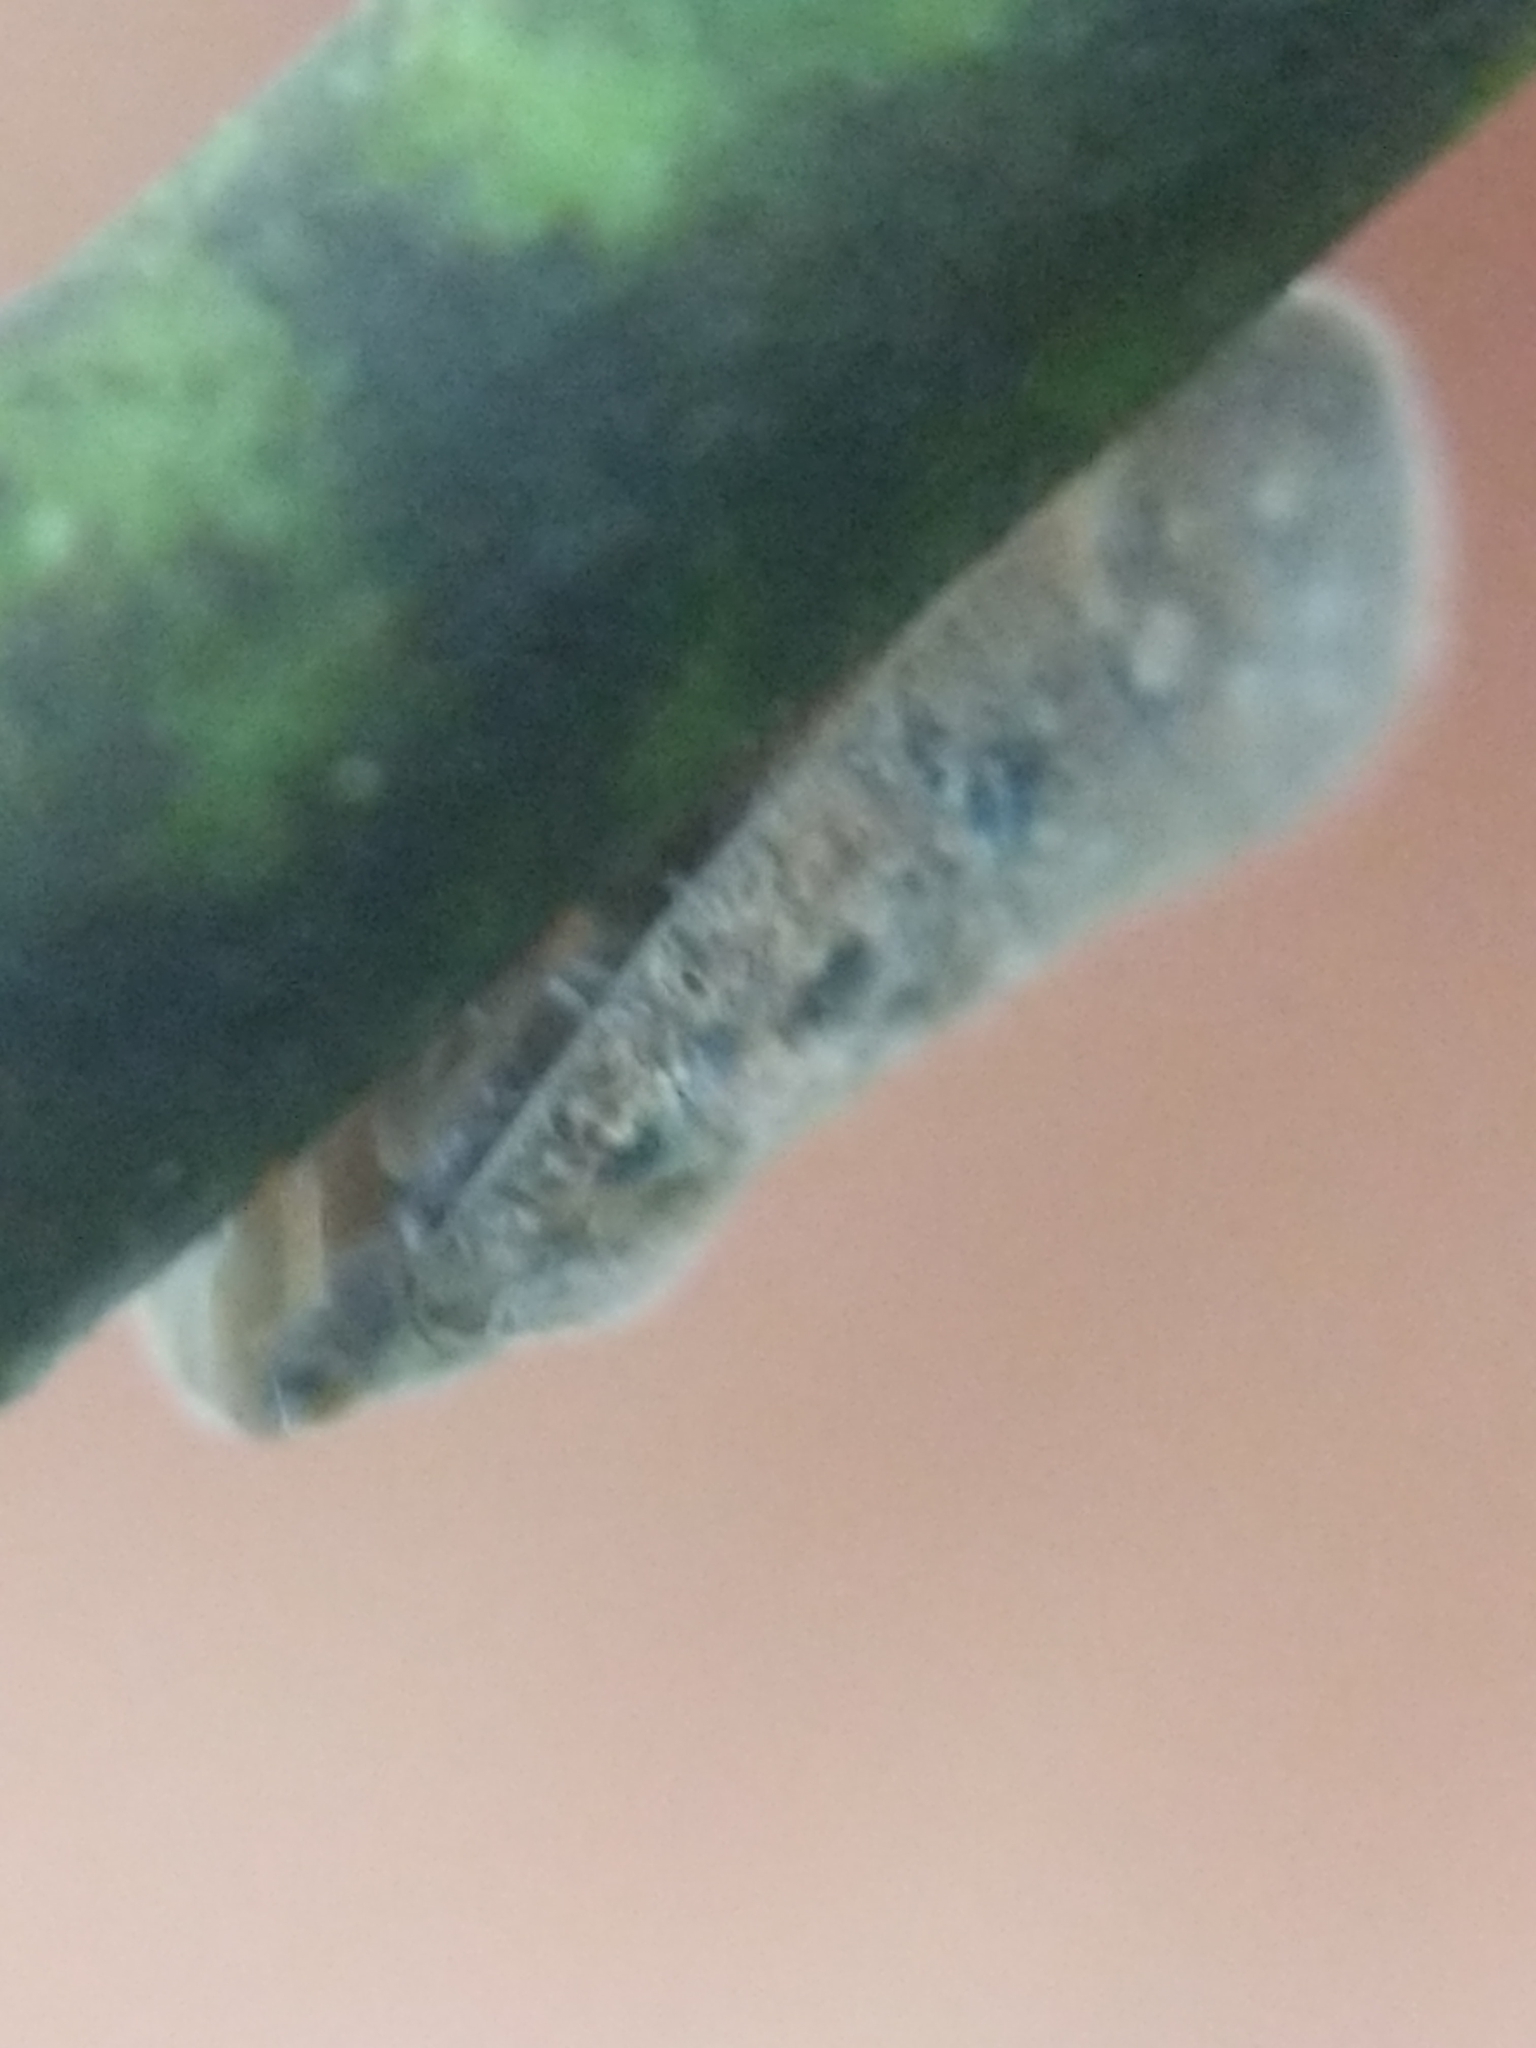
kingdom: Animalia
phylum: Arthropoda
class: Insecta
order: Hemiptera
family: Flatidae
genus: Metcalfa
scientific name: Metcalfa pruinosa
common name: Citrus flatid planthopper
